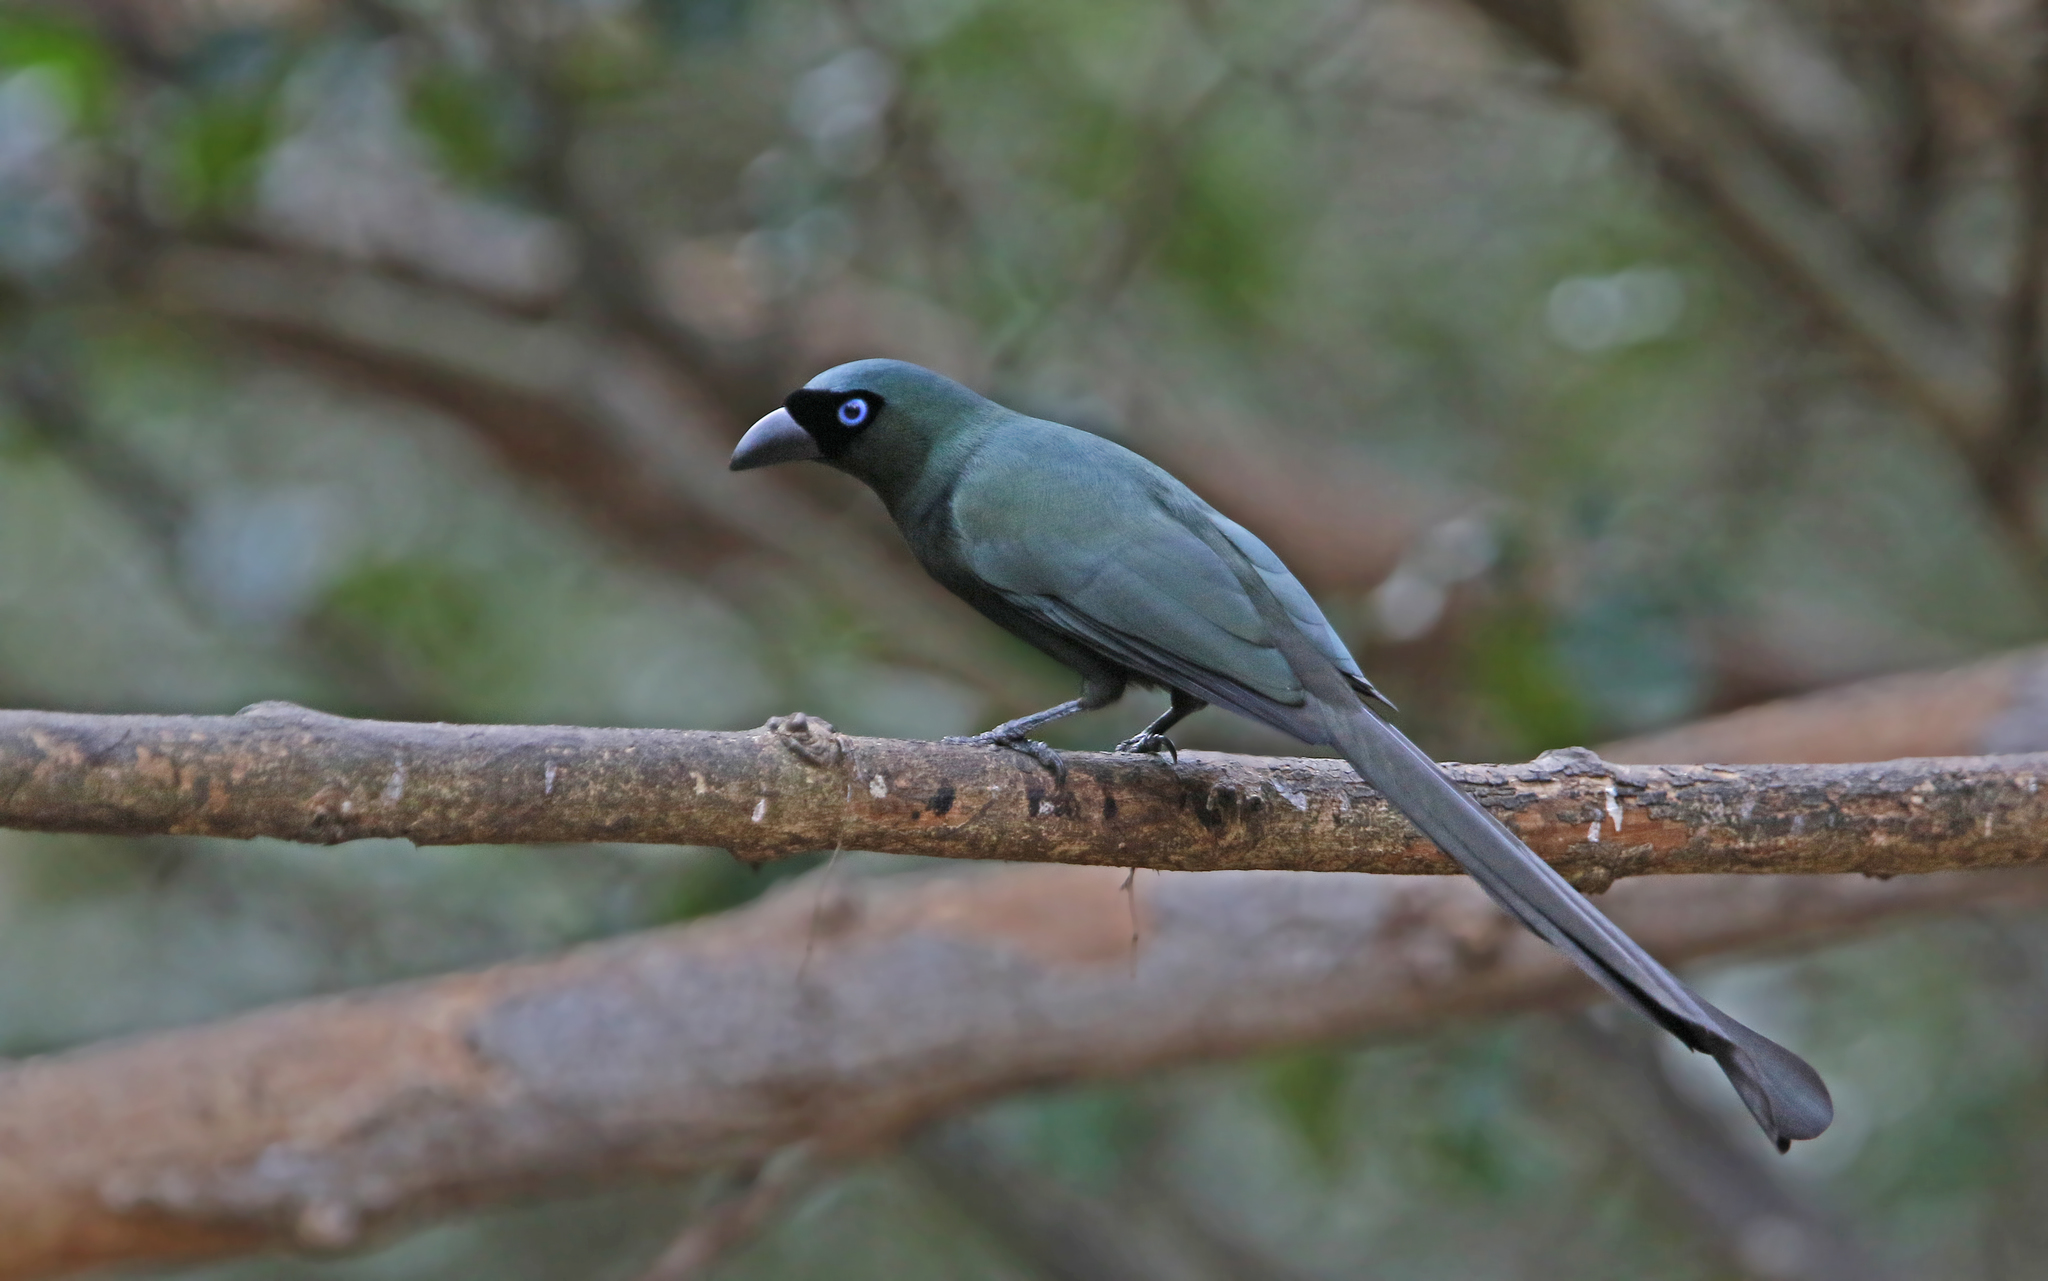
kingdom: Animalia
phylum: Chordata
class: Aves
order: Passeriformes
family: Corvidae
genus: Crypsirina
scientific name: Crypsirina temia
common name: Racket-tailed treepie
